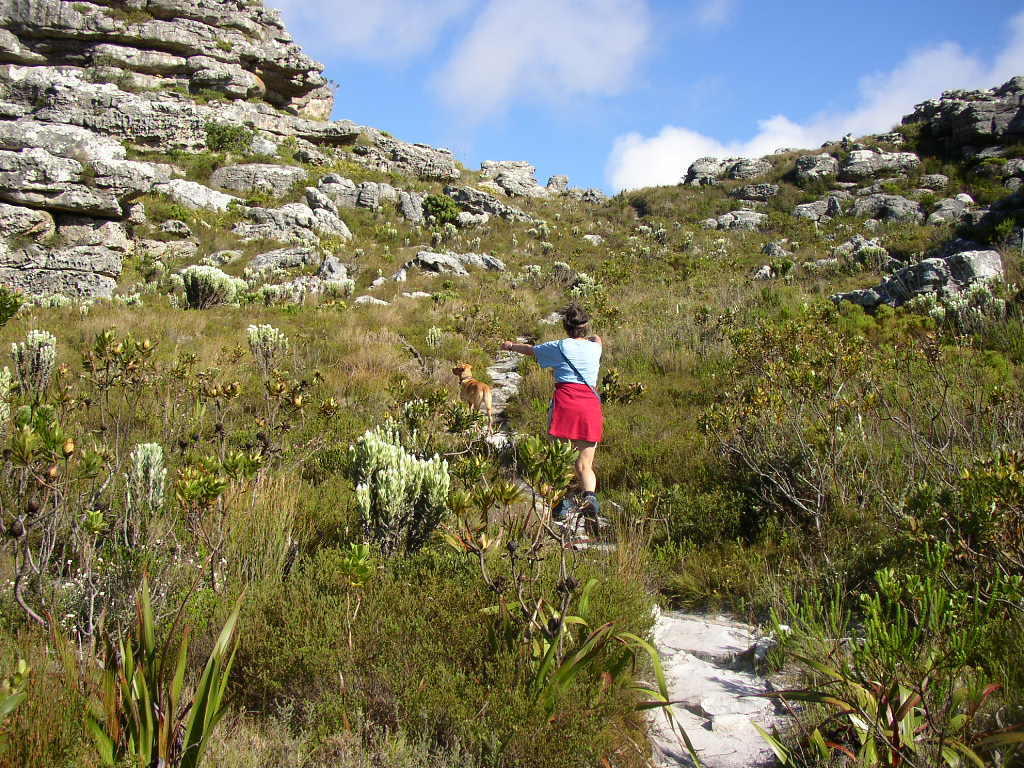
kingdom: Plantae
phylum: Tracheophyta
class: Magnoliopsida
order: Asterales
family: Asteraceae
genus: Syncarpha
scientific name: Syncarpha vestita
